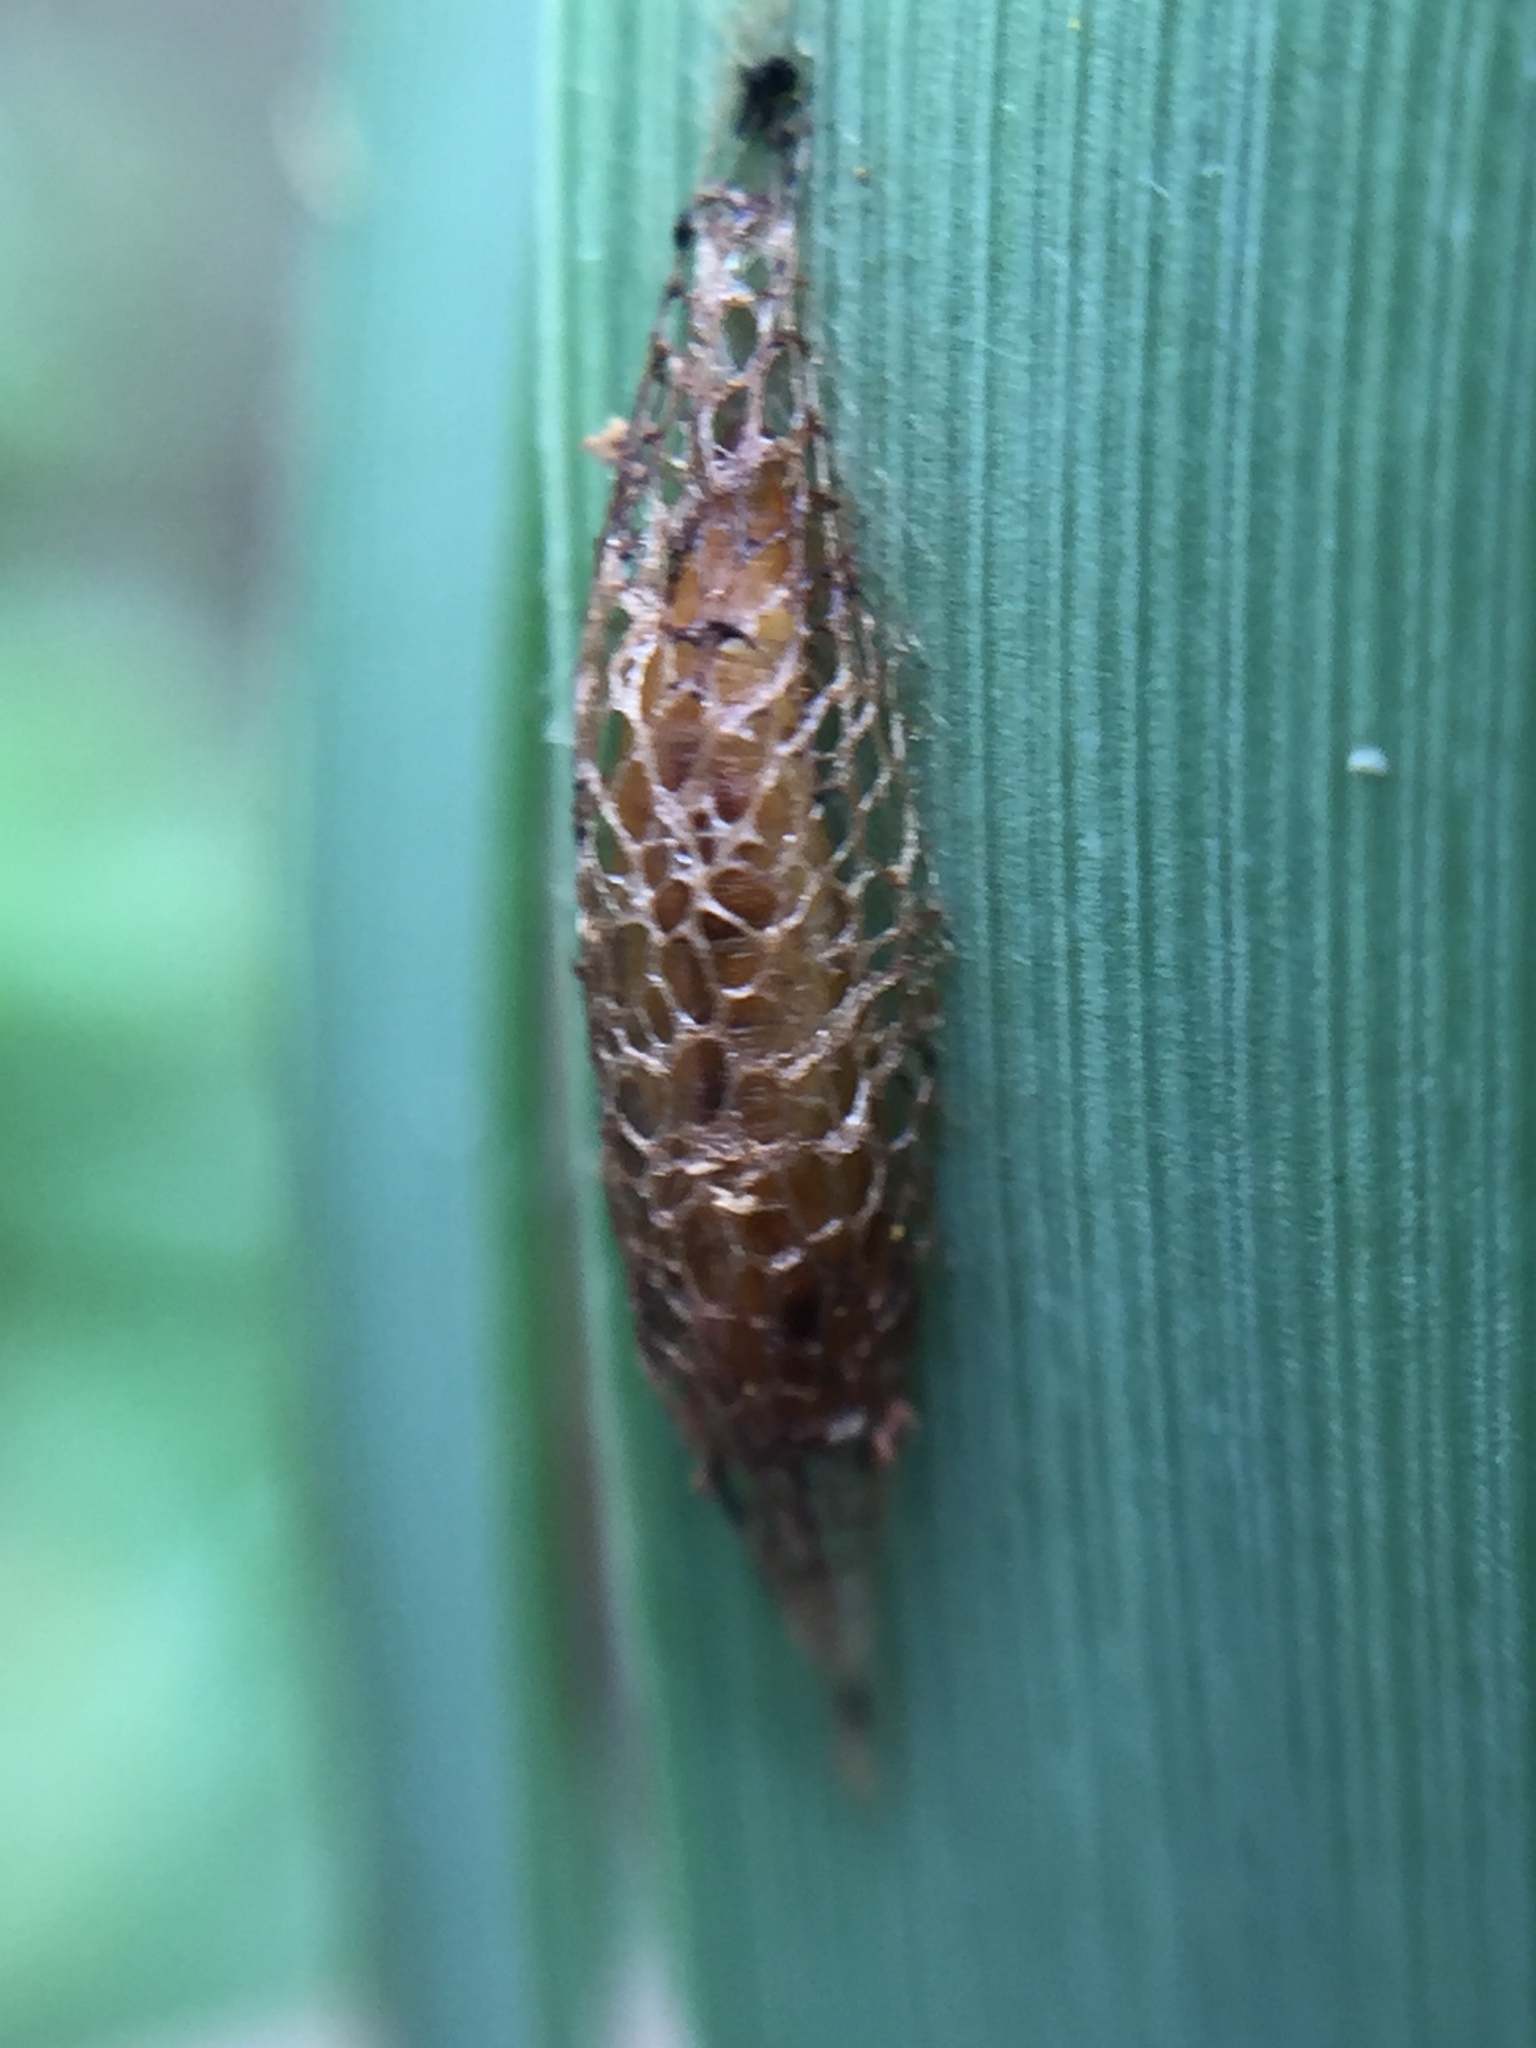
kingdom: Animalia
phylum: Arthropoda
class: Insecta
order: Lepidoptera
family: Glyphipterigidae
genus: Glyphipterix
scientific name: Glyphipterix dichorda
